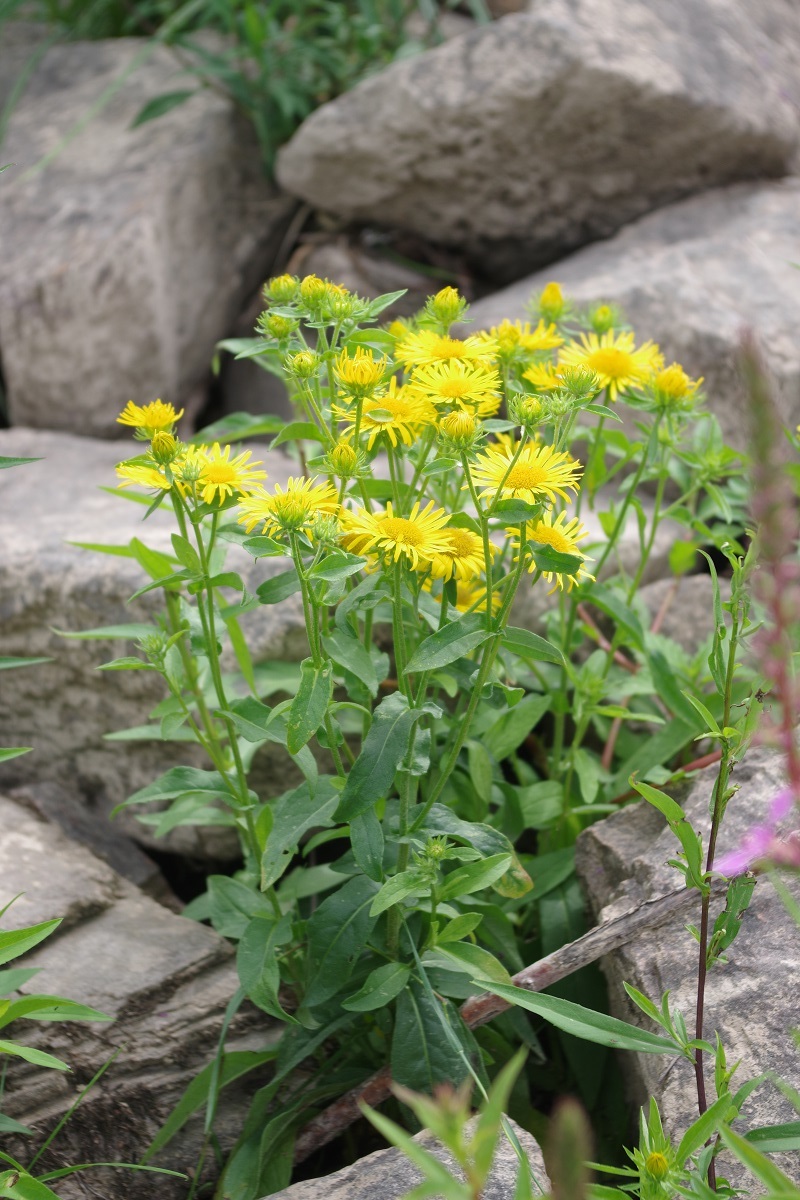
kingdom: Plantae
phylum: Tracheophyta
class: Magnoliopsida
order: Asterales
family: Asteraceae
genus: Pentanema
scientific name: Pentanema britannicum
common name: British elecampane
